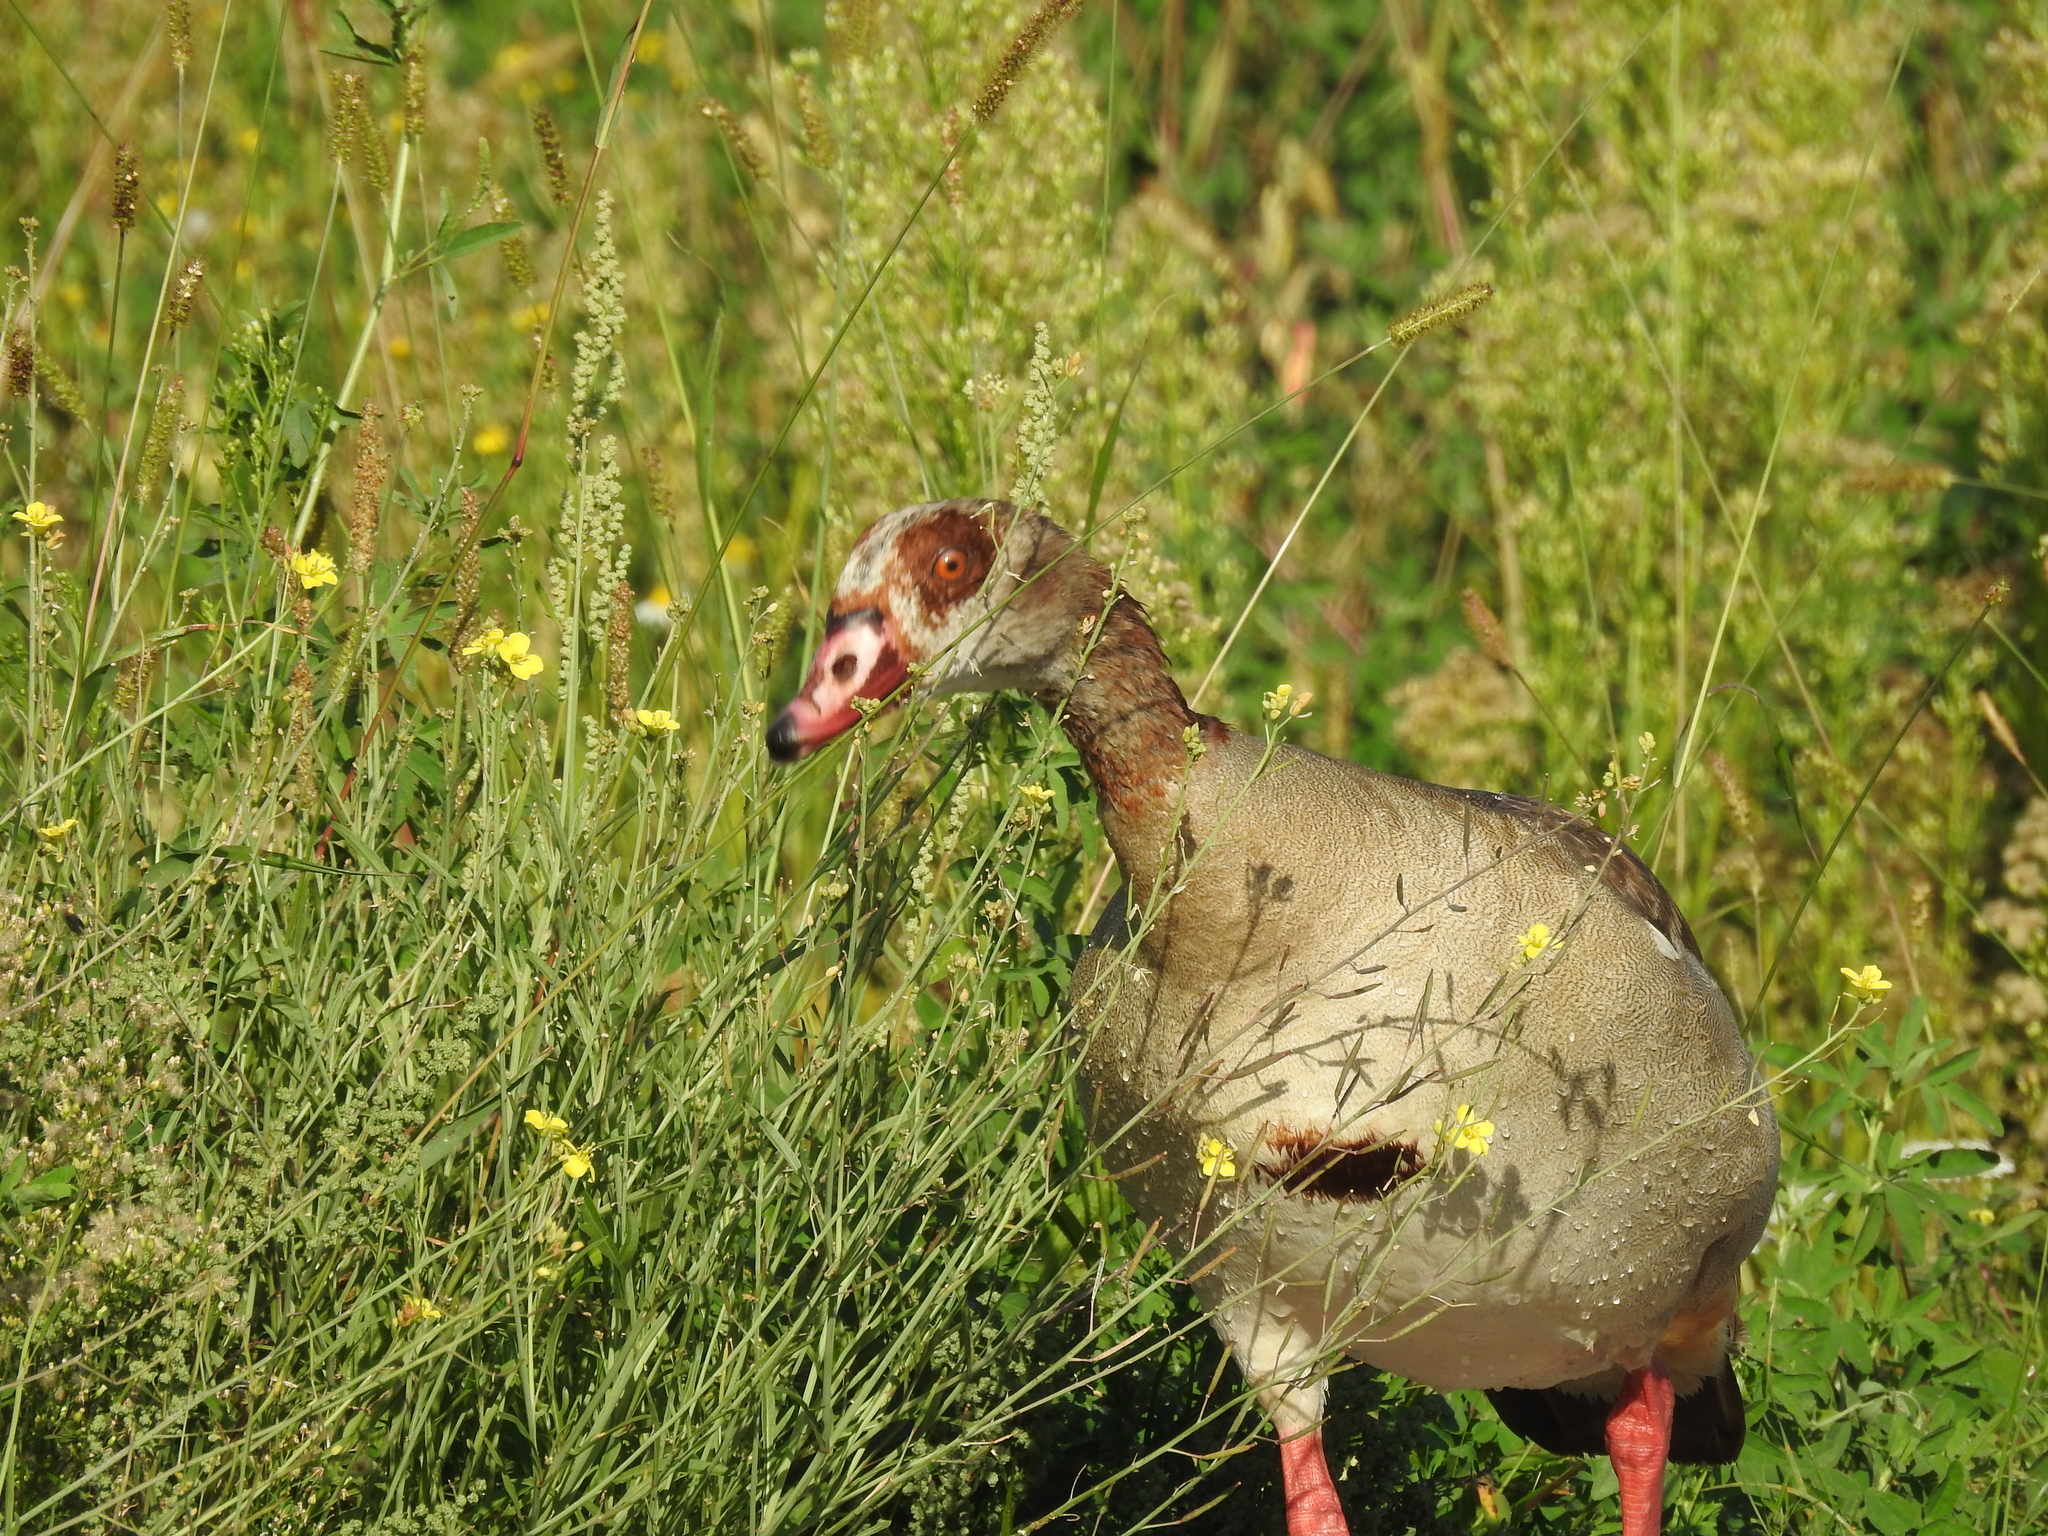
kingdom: Animalia
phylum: Chordata
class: Aves
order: Anseriformes
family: Anatidae
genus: Alopochen
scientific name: Alopochen aegyptiaca
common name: Egyptian goose
